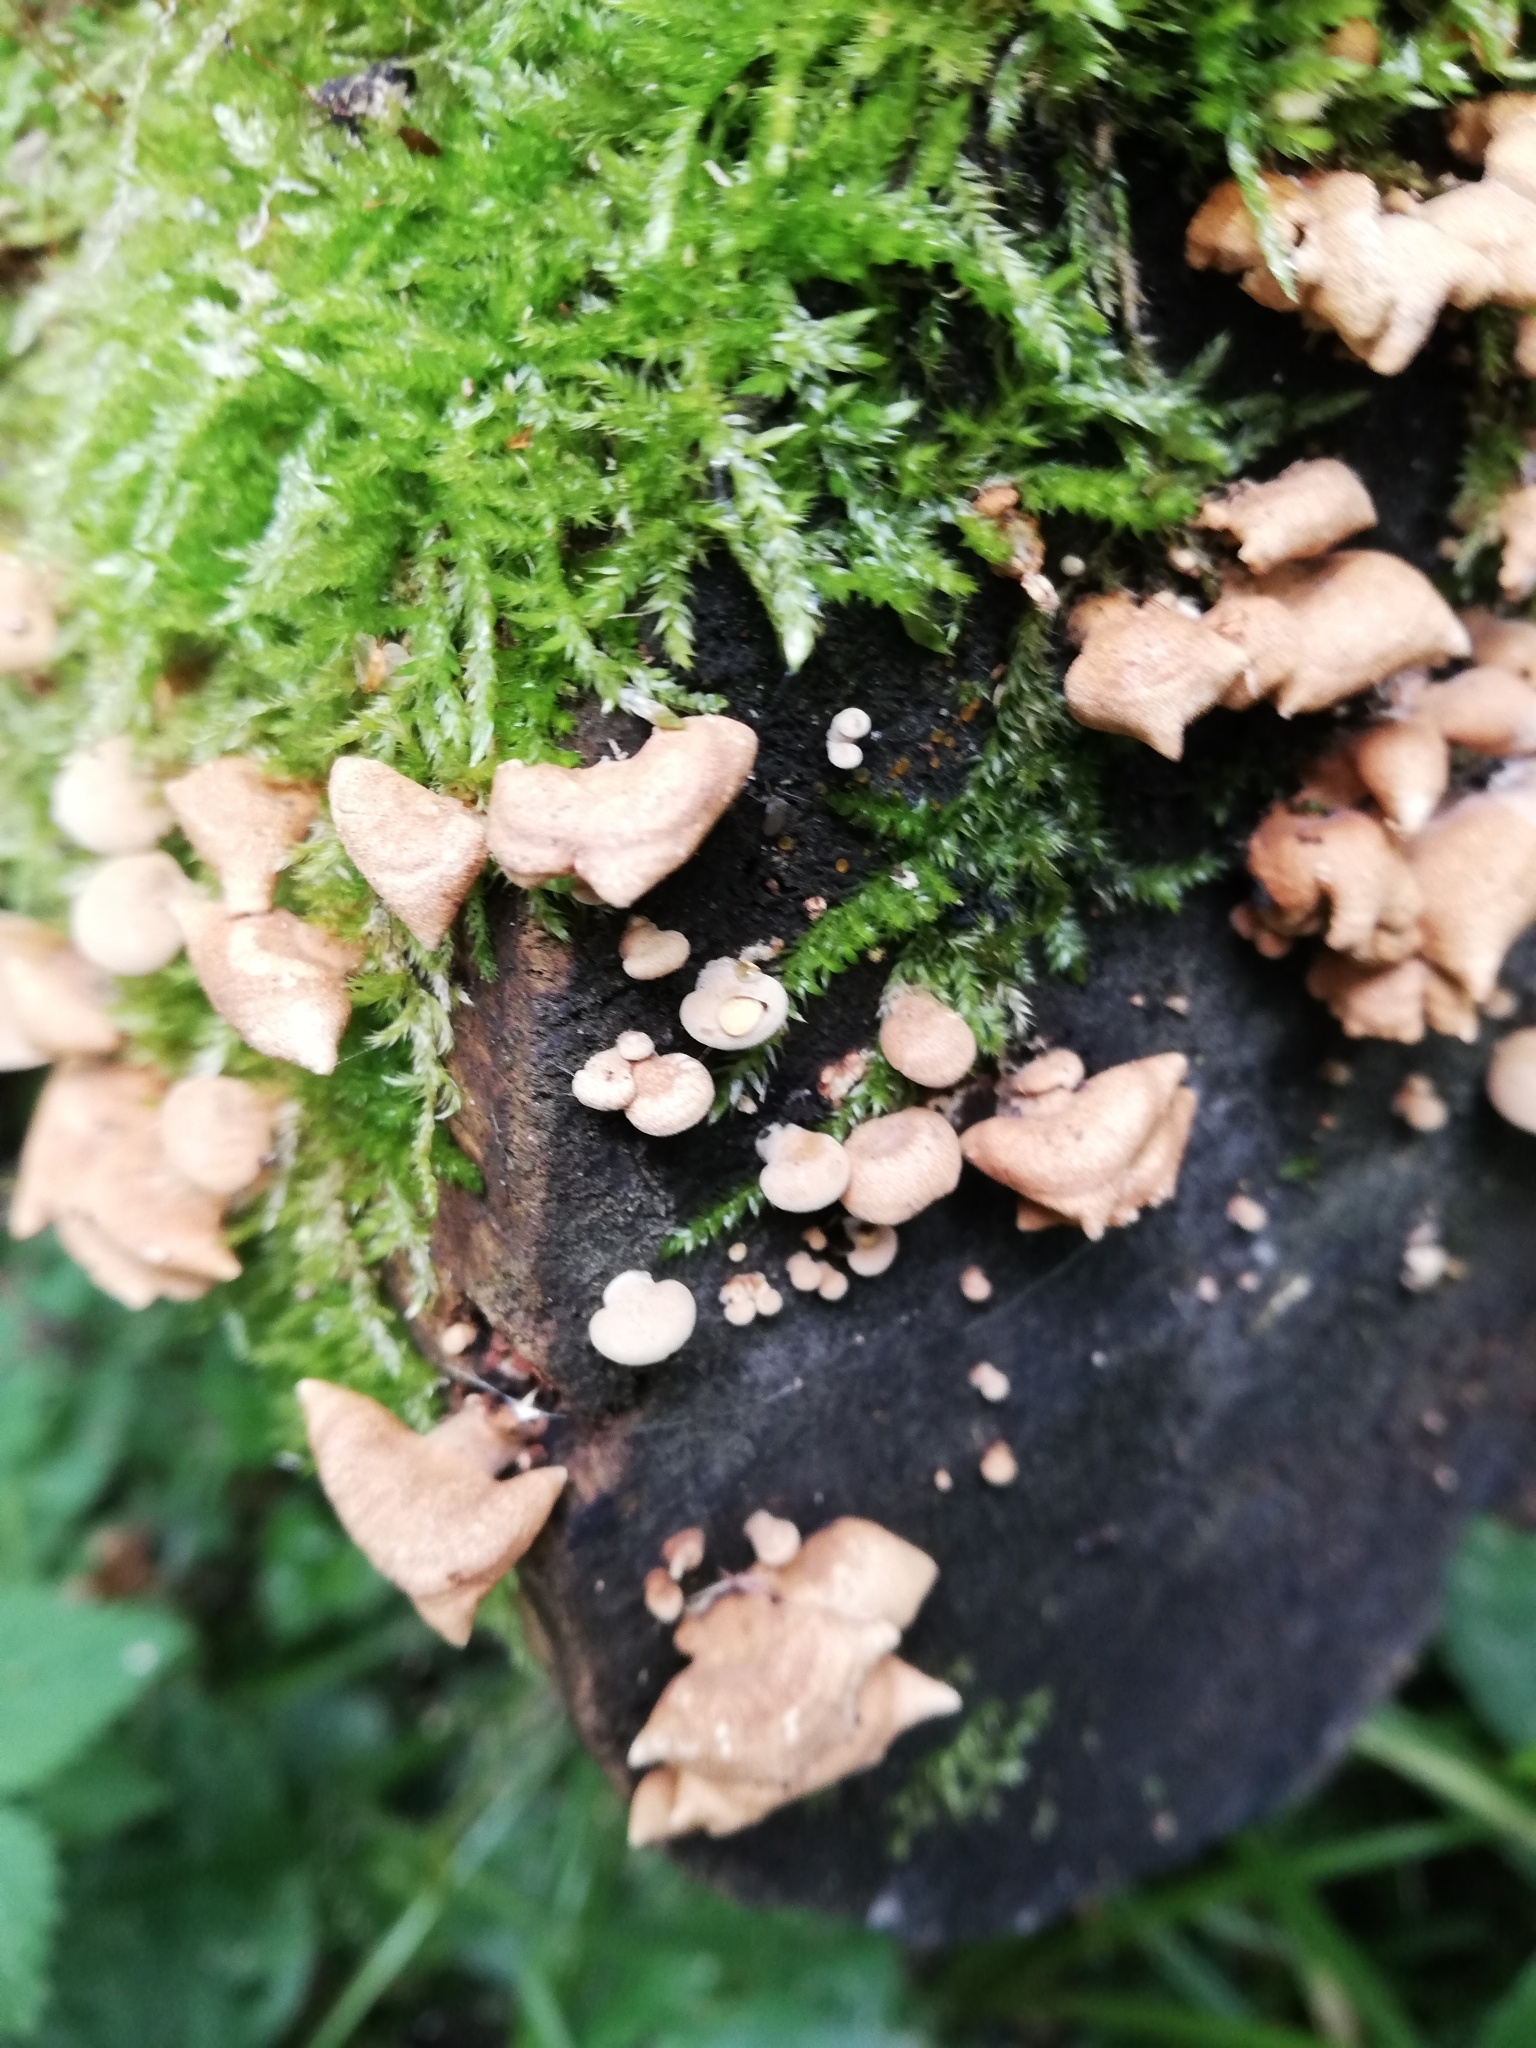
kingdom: Fungi
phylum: Basidiomycota
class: Agaricomycetes
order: Agaricales
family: Mycenaceae
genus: Panellus
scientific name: Panellus stipticus
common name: Bitter oysterling
